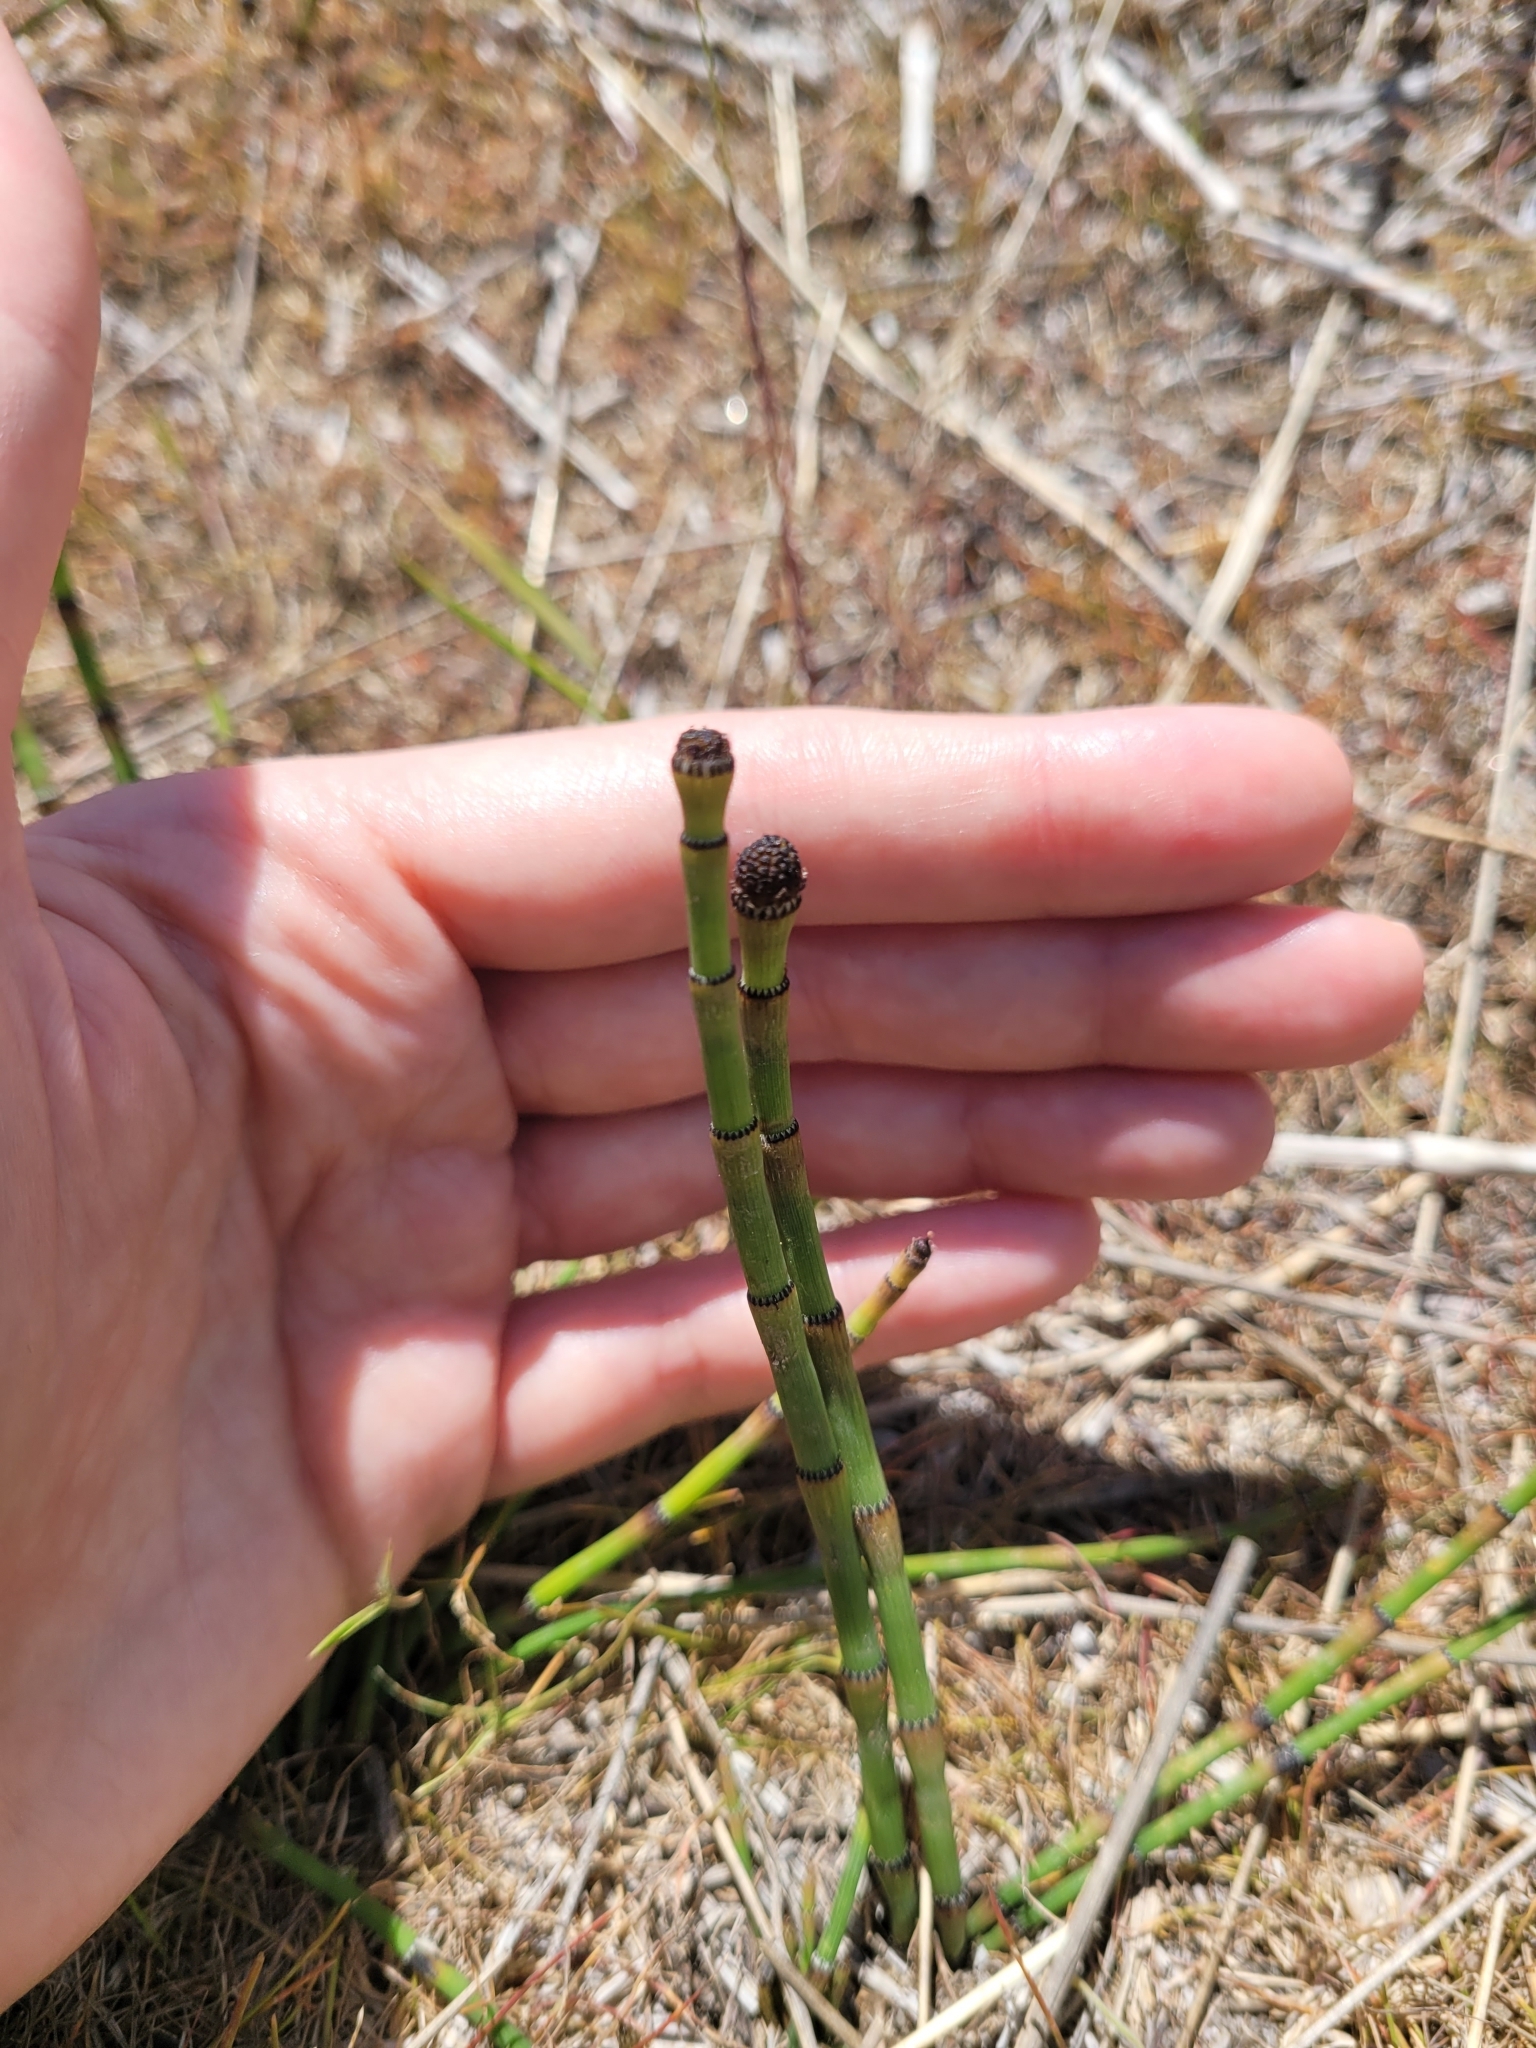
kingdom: Plantae
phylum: Tracheophyta
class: Polypodiopsida
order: Equisetales
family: Equisetaceae
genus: Equisetum
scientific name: Equisetum laevigatum
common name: Smooth scouring-rush
